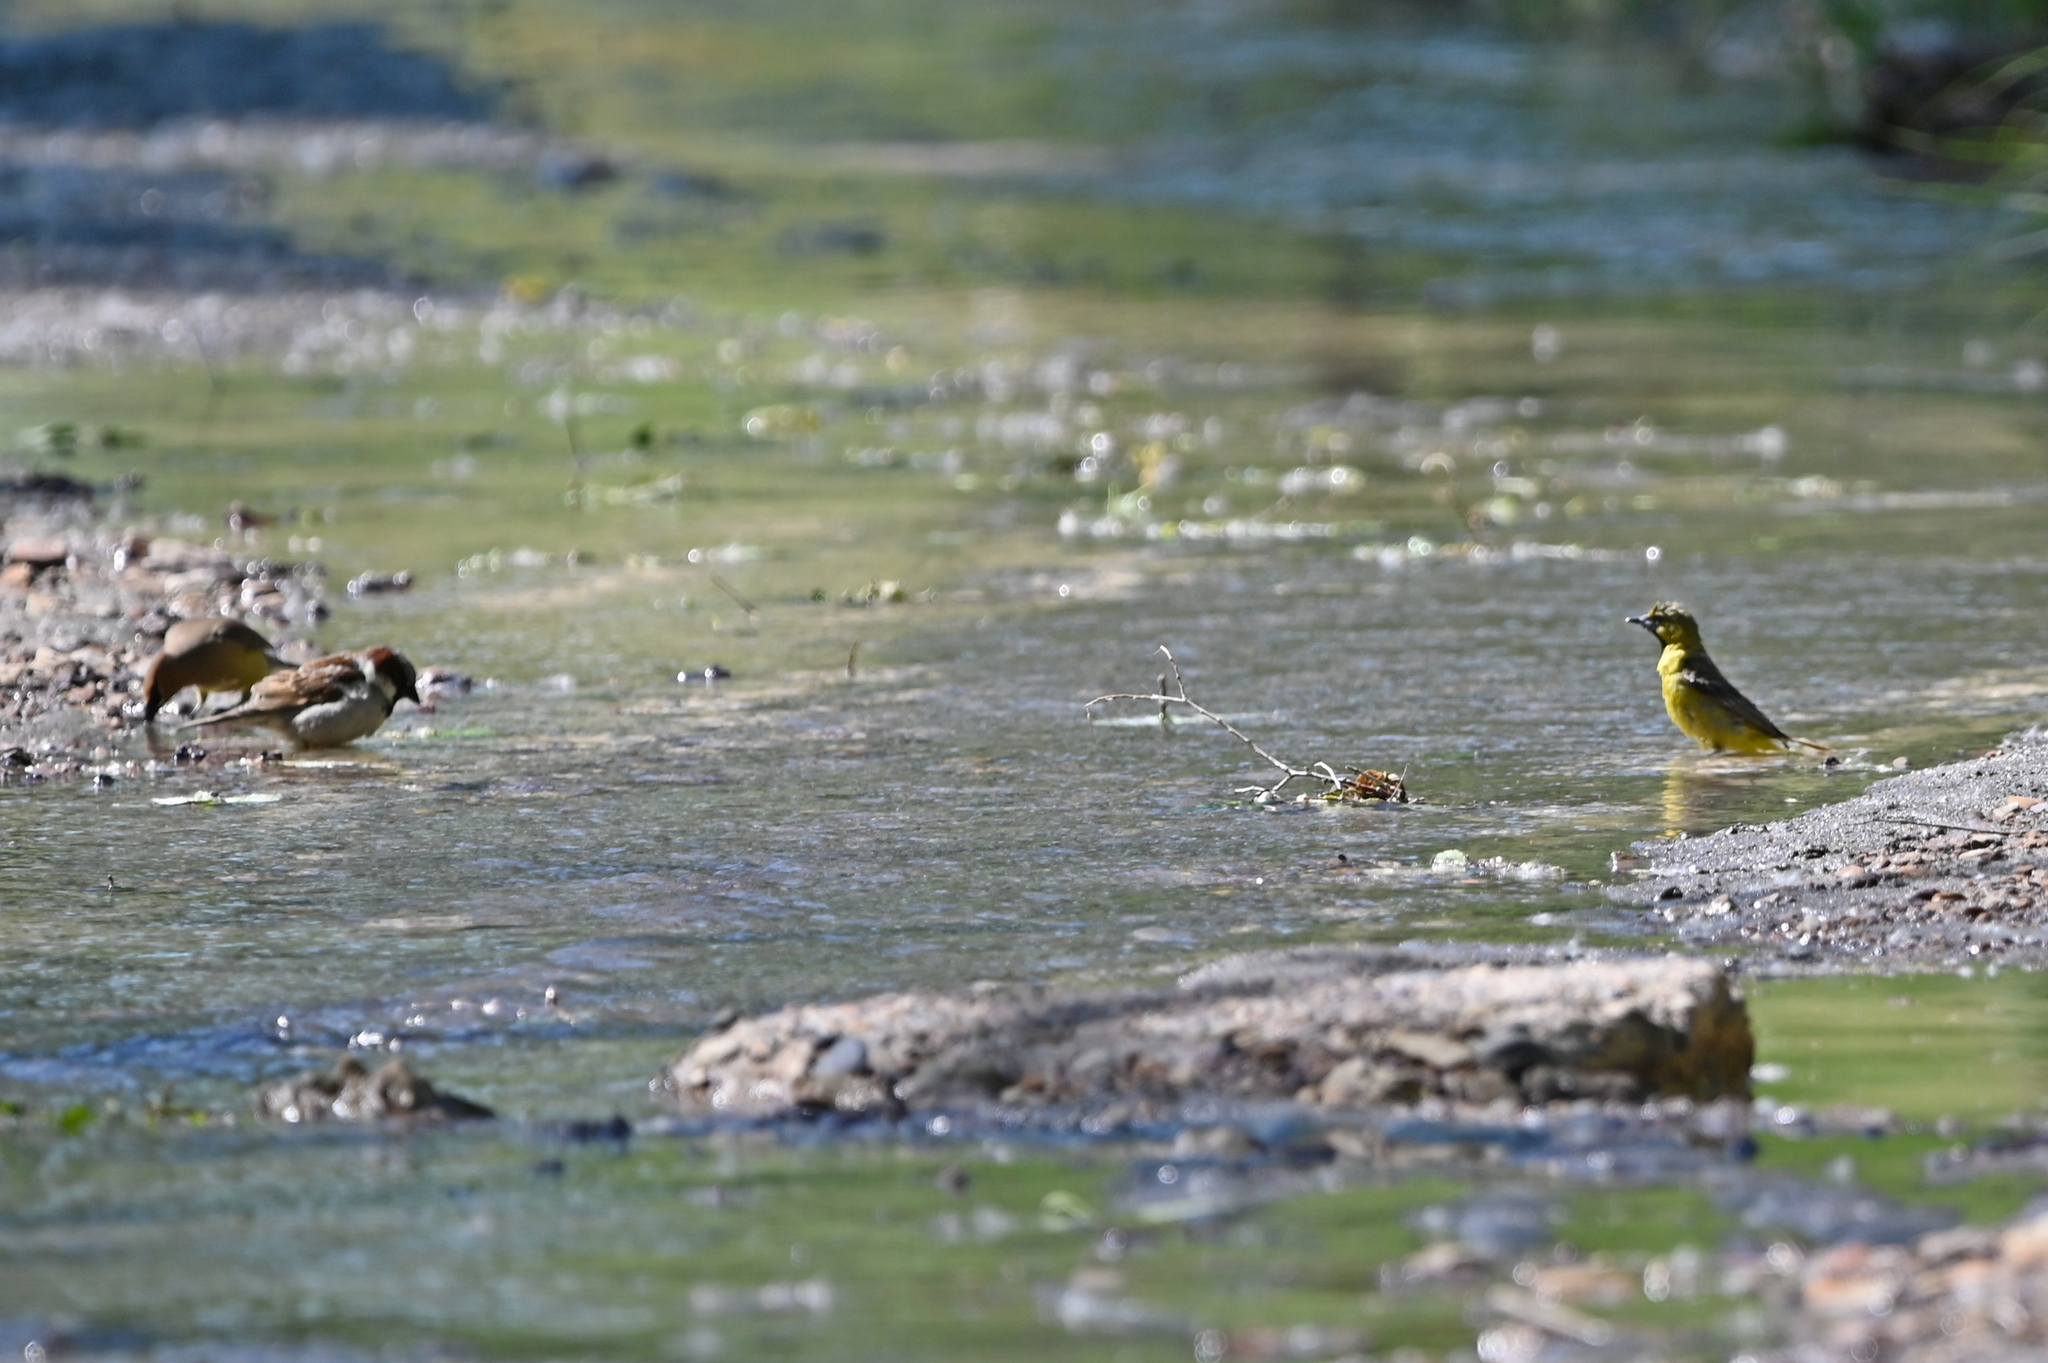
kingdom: Animalia
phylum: Chordata
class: Aves
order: Passeriformes
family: Icteridae
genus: Icterus
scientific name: Icterus spurius
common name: Orchard oriole
